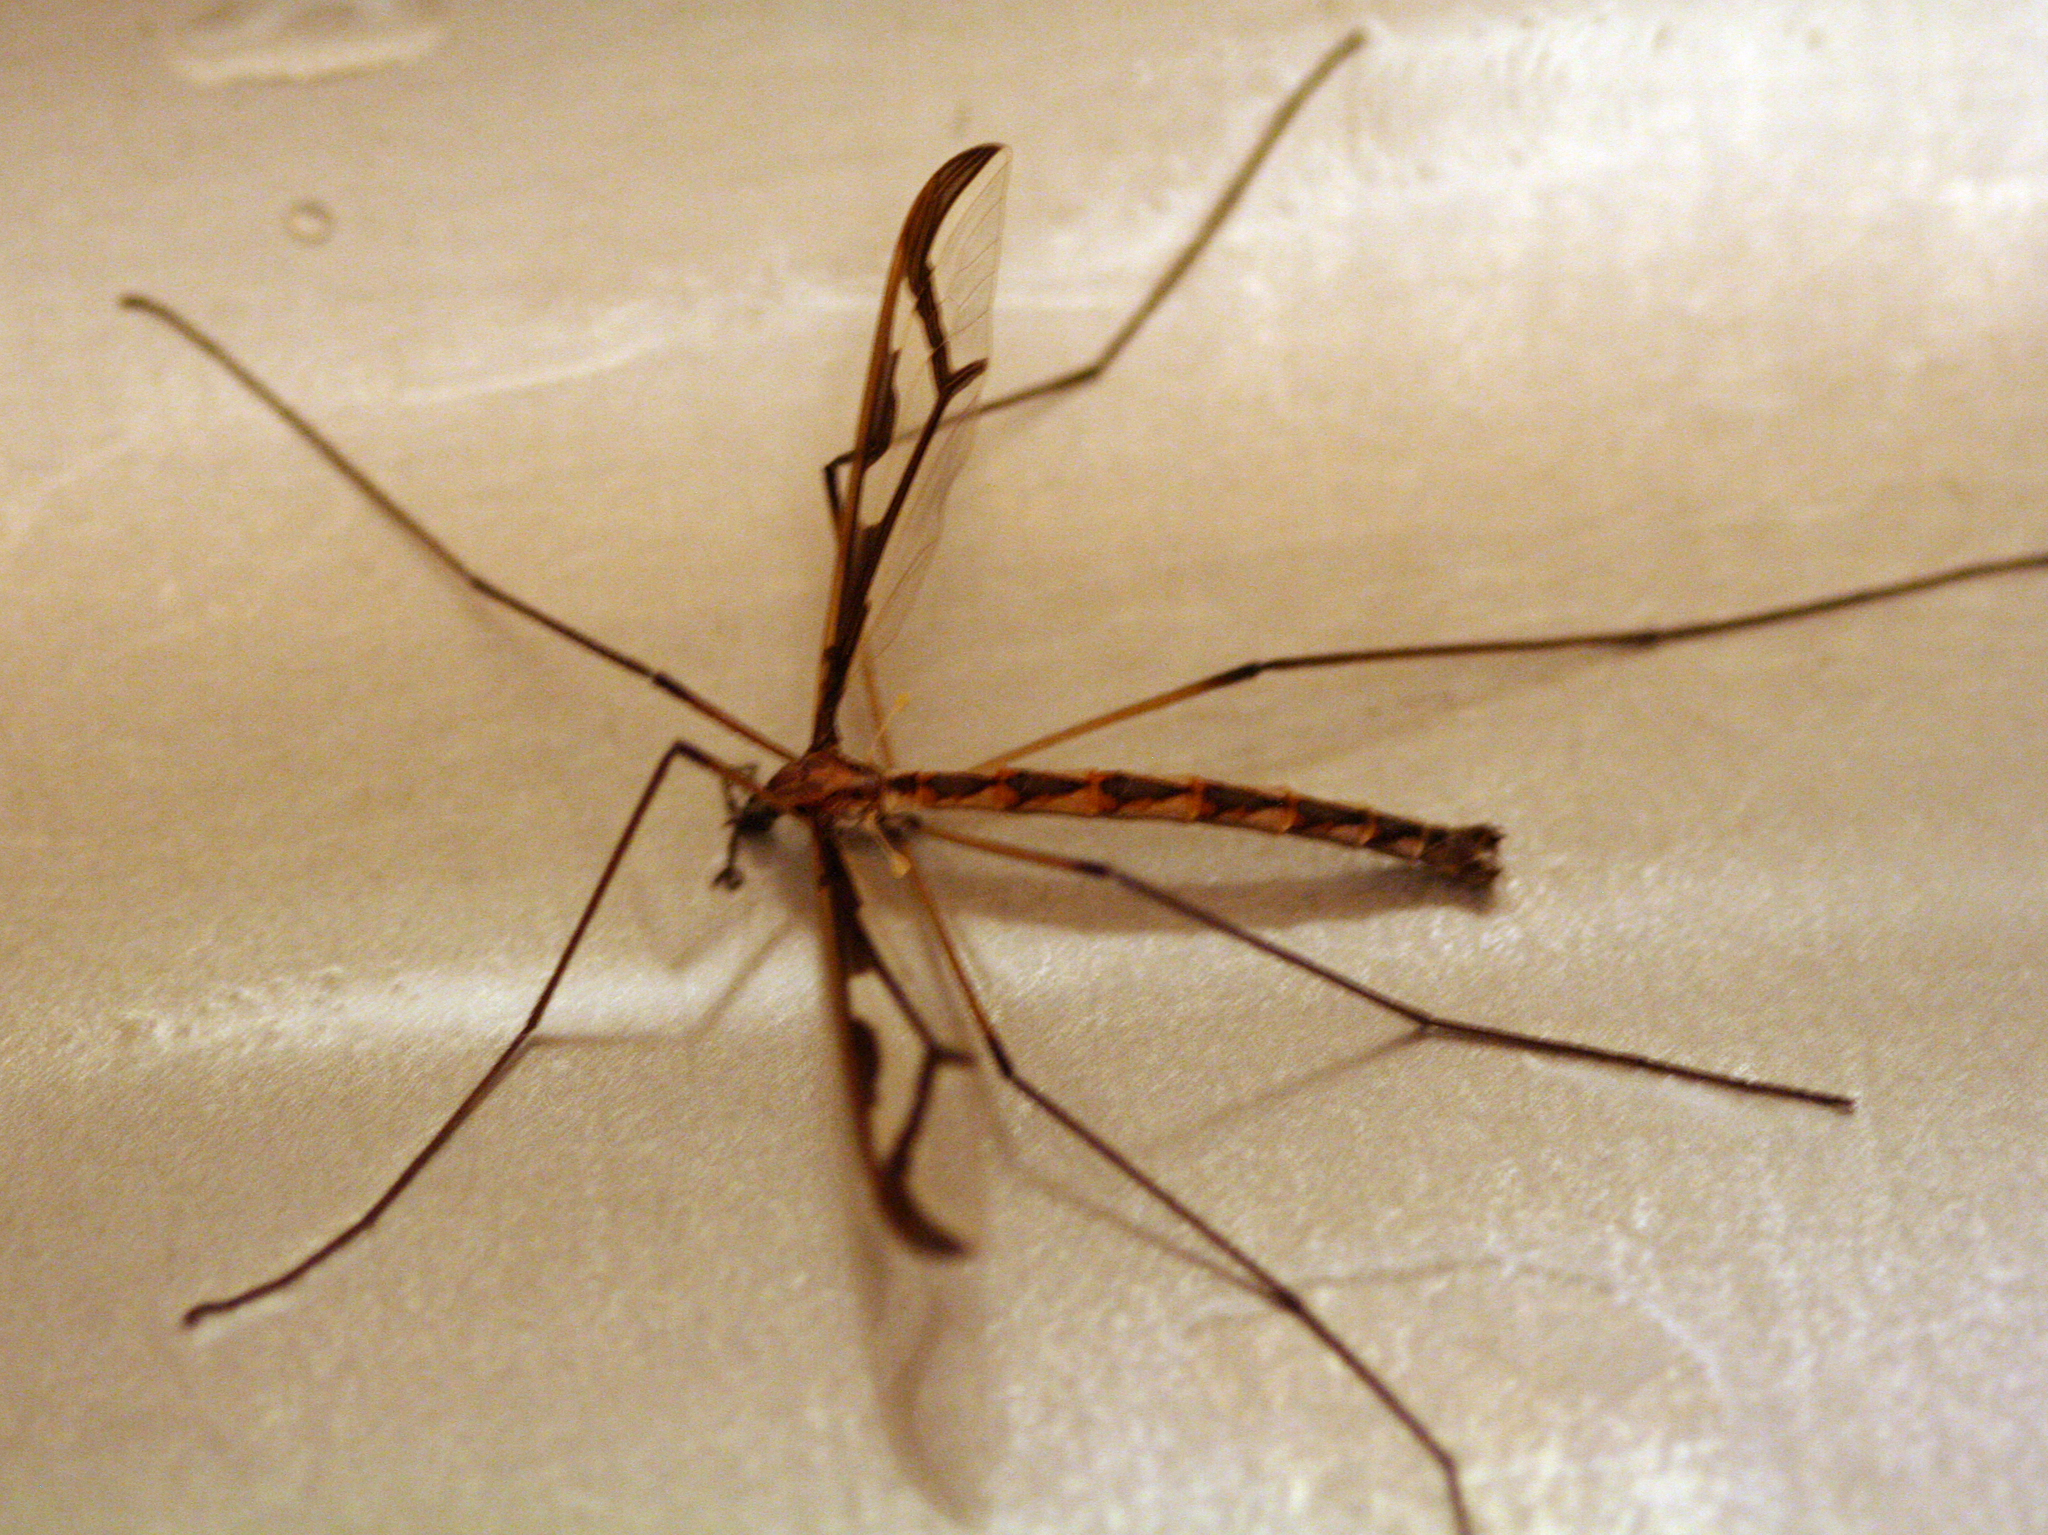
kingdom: Animalia
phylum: Arthropoda
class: Insecta
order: Diptera
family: Pediciidae
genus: Pedicia
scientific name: Pedicia albivitta
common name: Giant eastern crane fly
